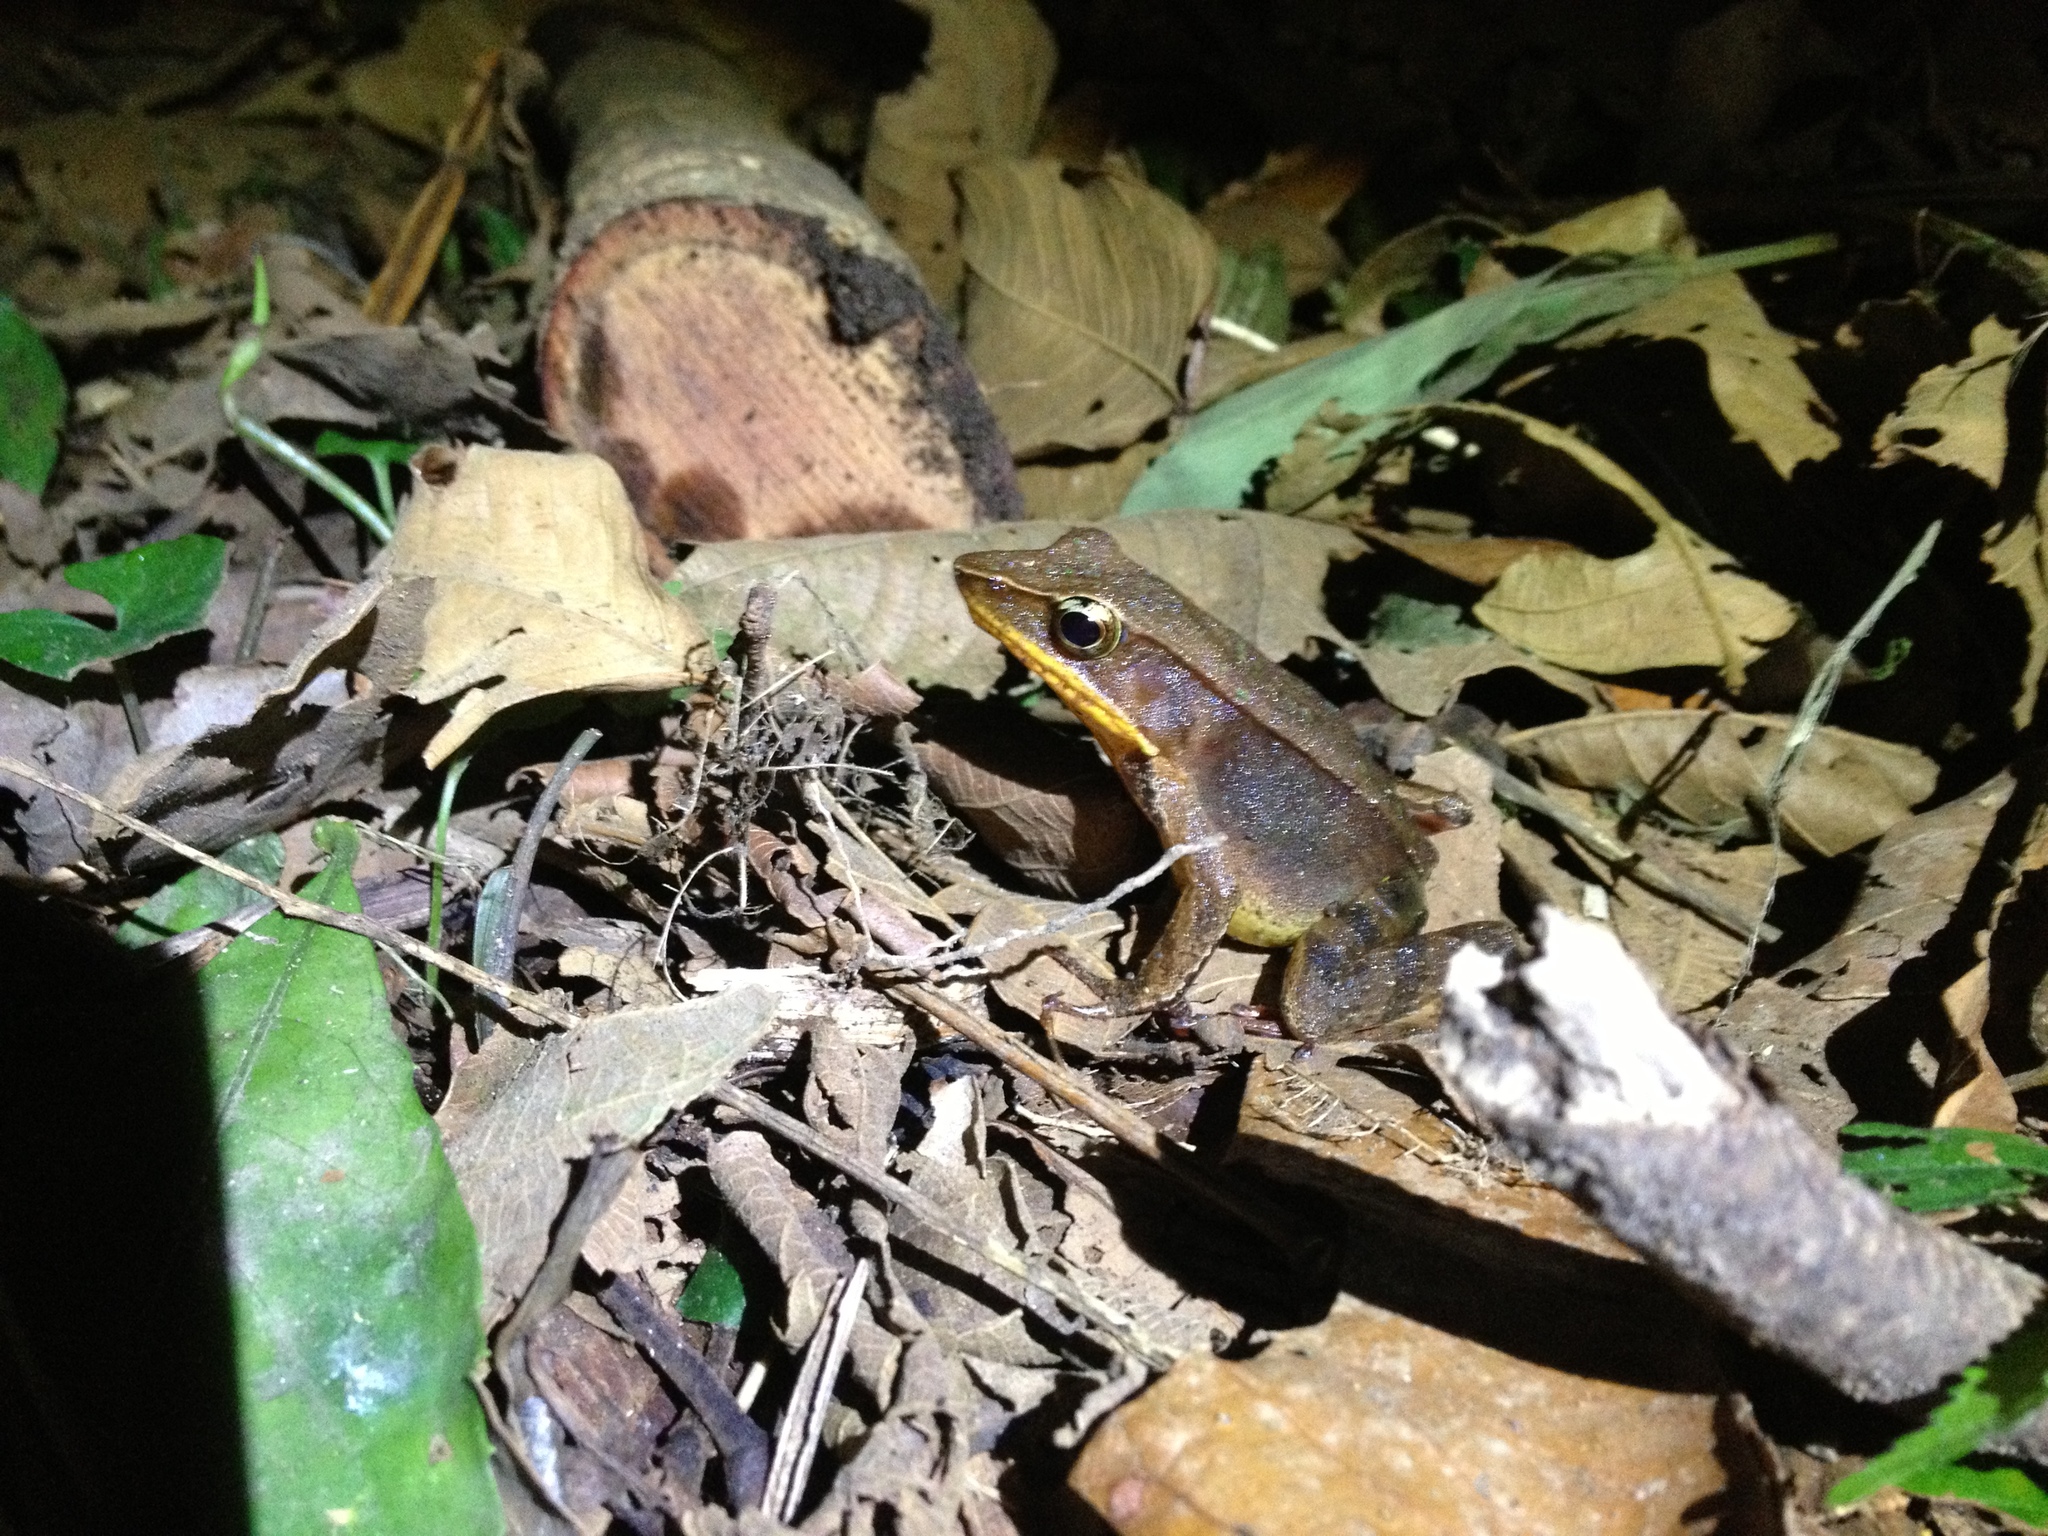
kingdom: Animalia
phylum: Chordata
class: Amphibia
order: Anura
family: Ranidae
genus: Lithobates
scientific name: Lithobates warszewitschii
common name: Warszewitsch's frog
